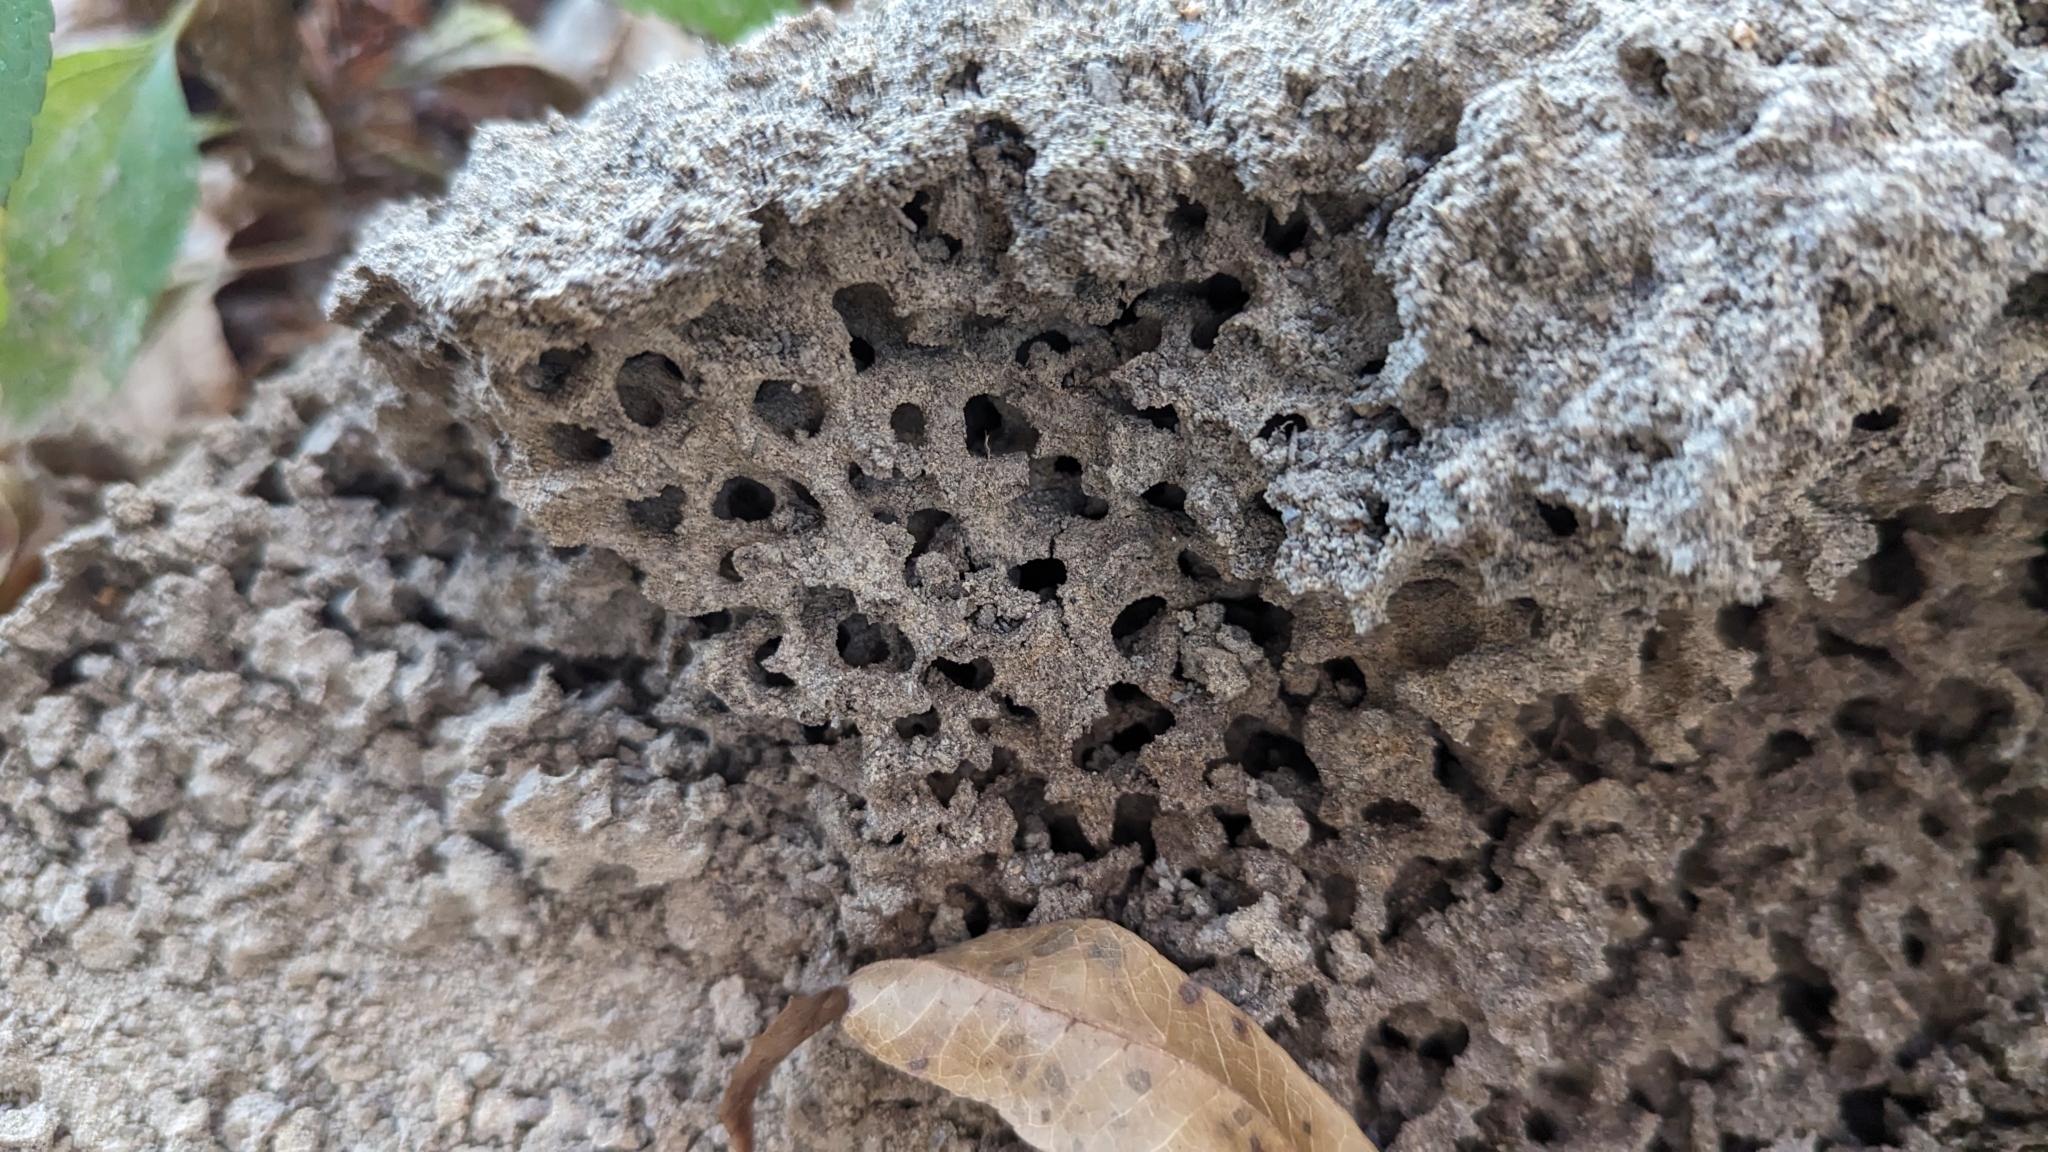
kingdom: Animalia
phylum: Arthropoda
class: Insecta
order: Hymenoptera
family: Formicidae
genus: Solenopsis
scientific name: Solenopsis invicta
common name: Red imported fire ant
